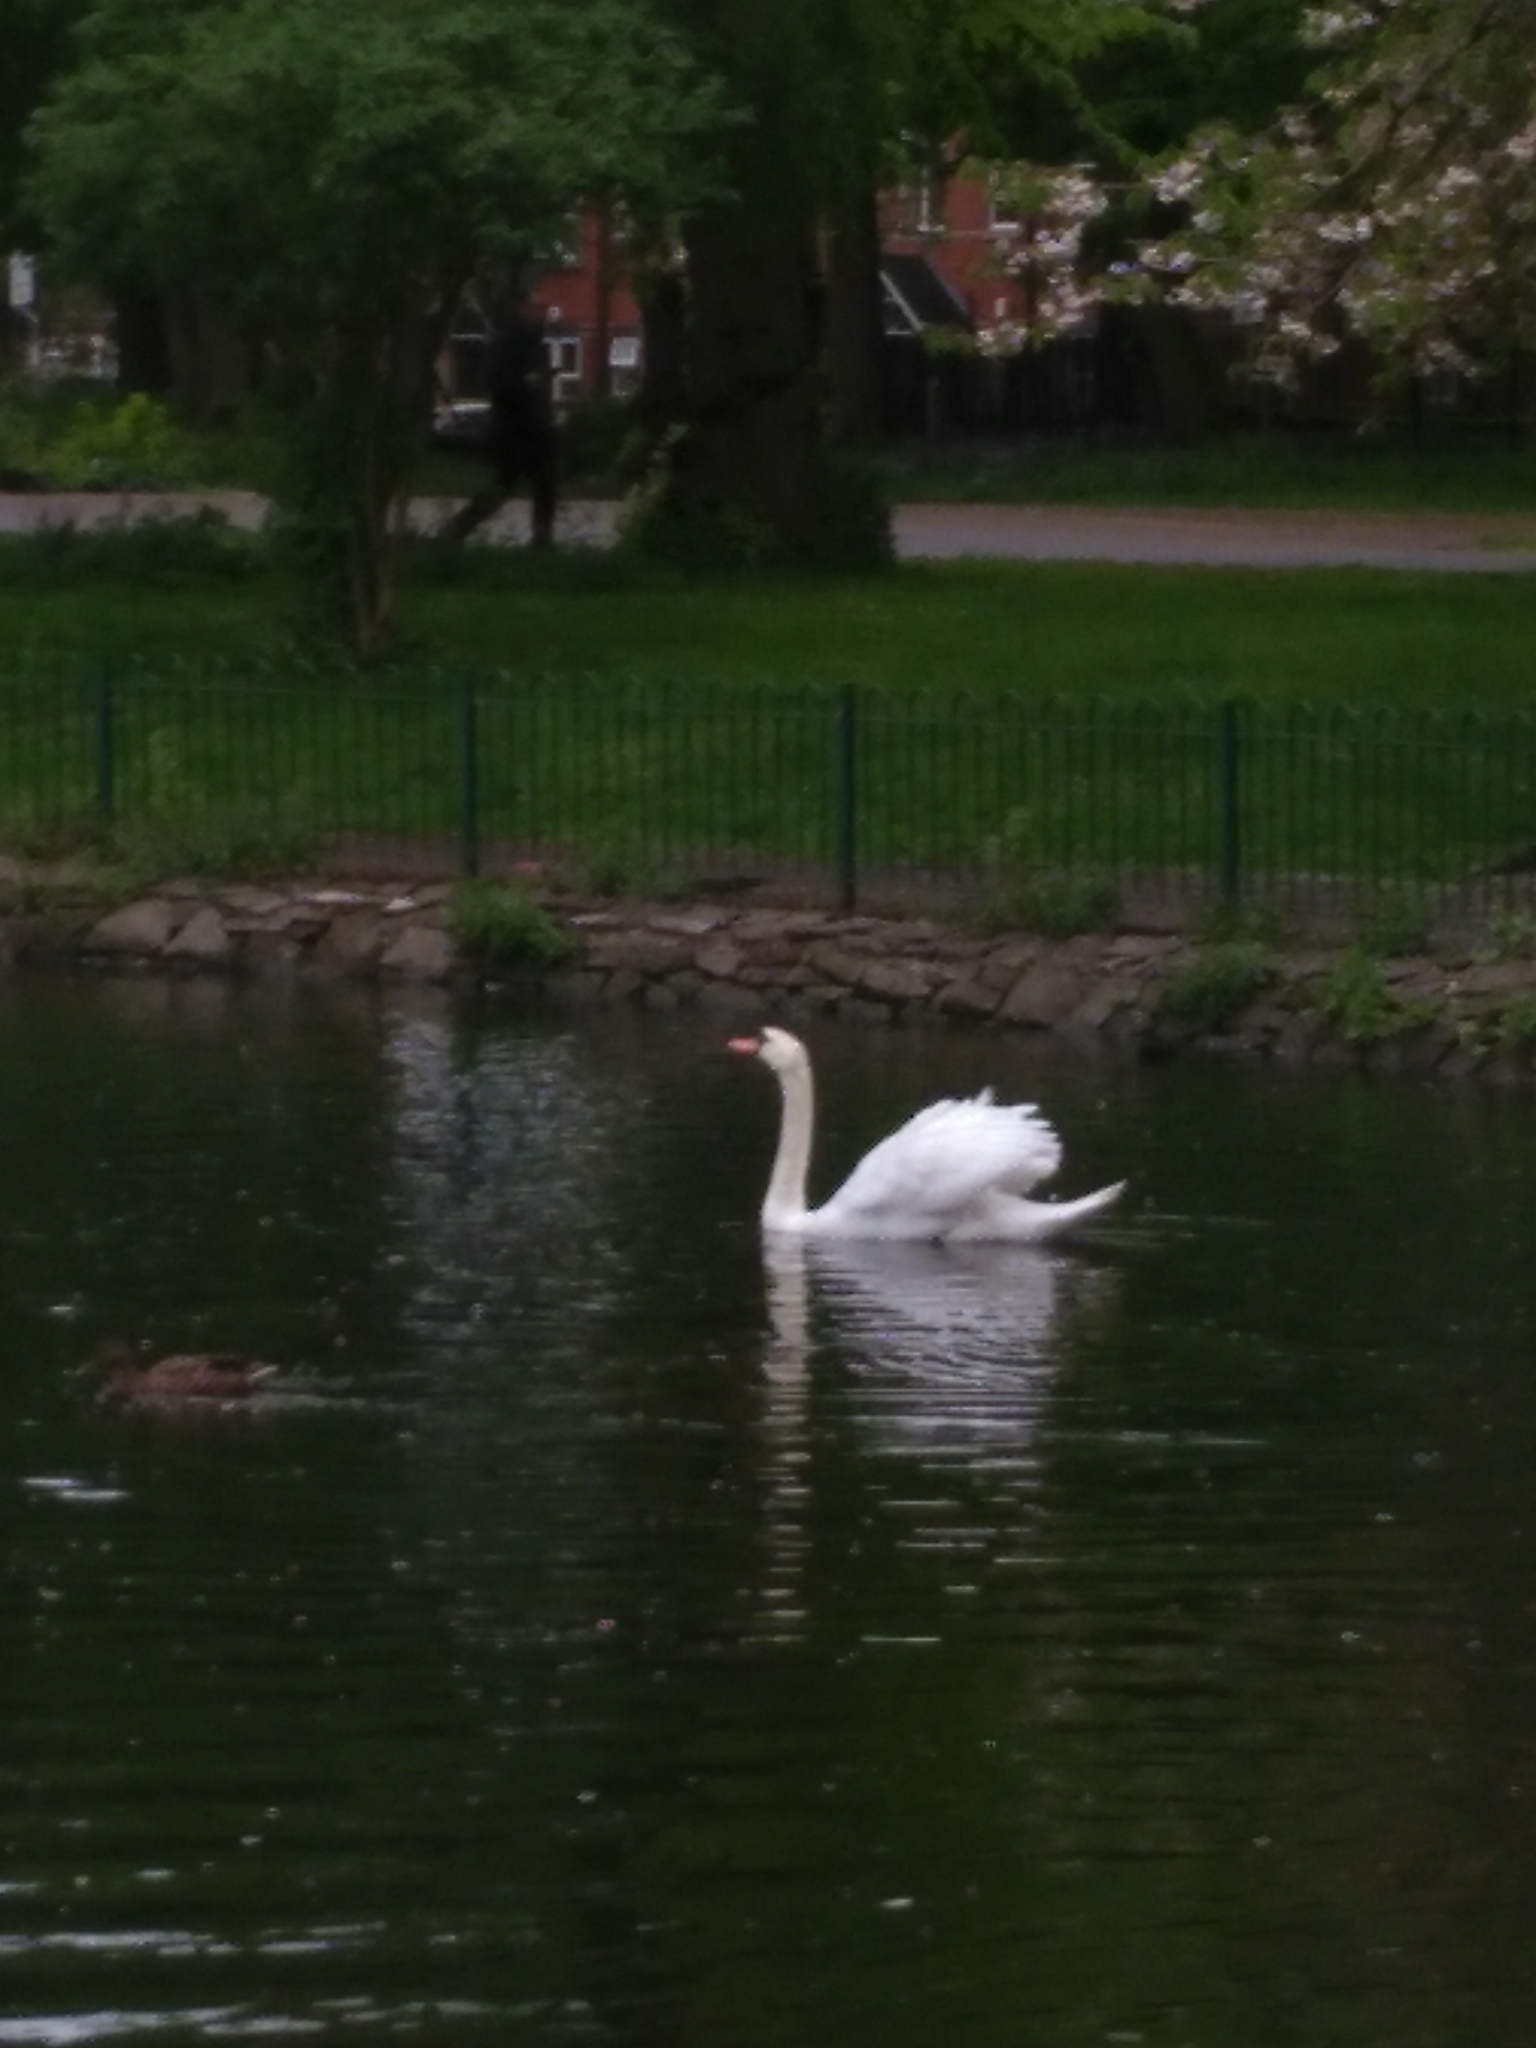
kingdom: Animalia
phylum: Chordata
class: Aves
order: Anseriformes
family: Anatidae
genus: Cygnus
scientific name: Cygnus olor
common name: Mute swan
